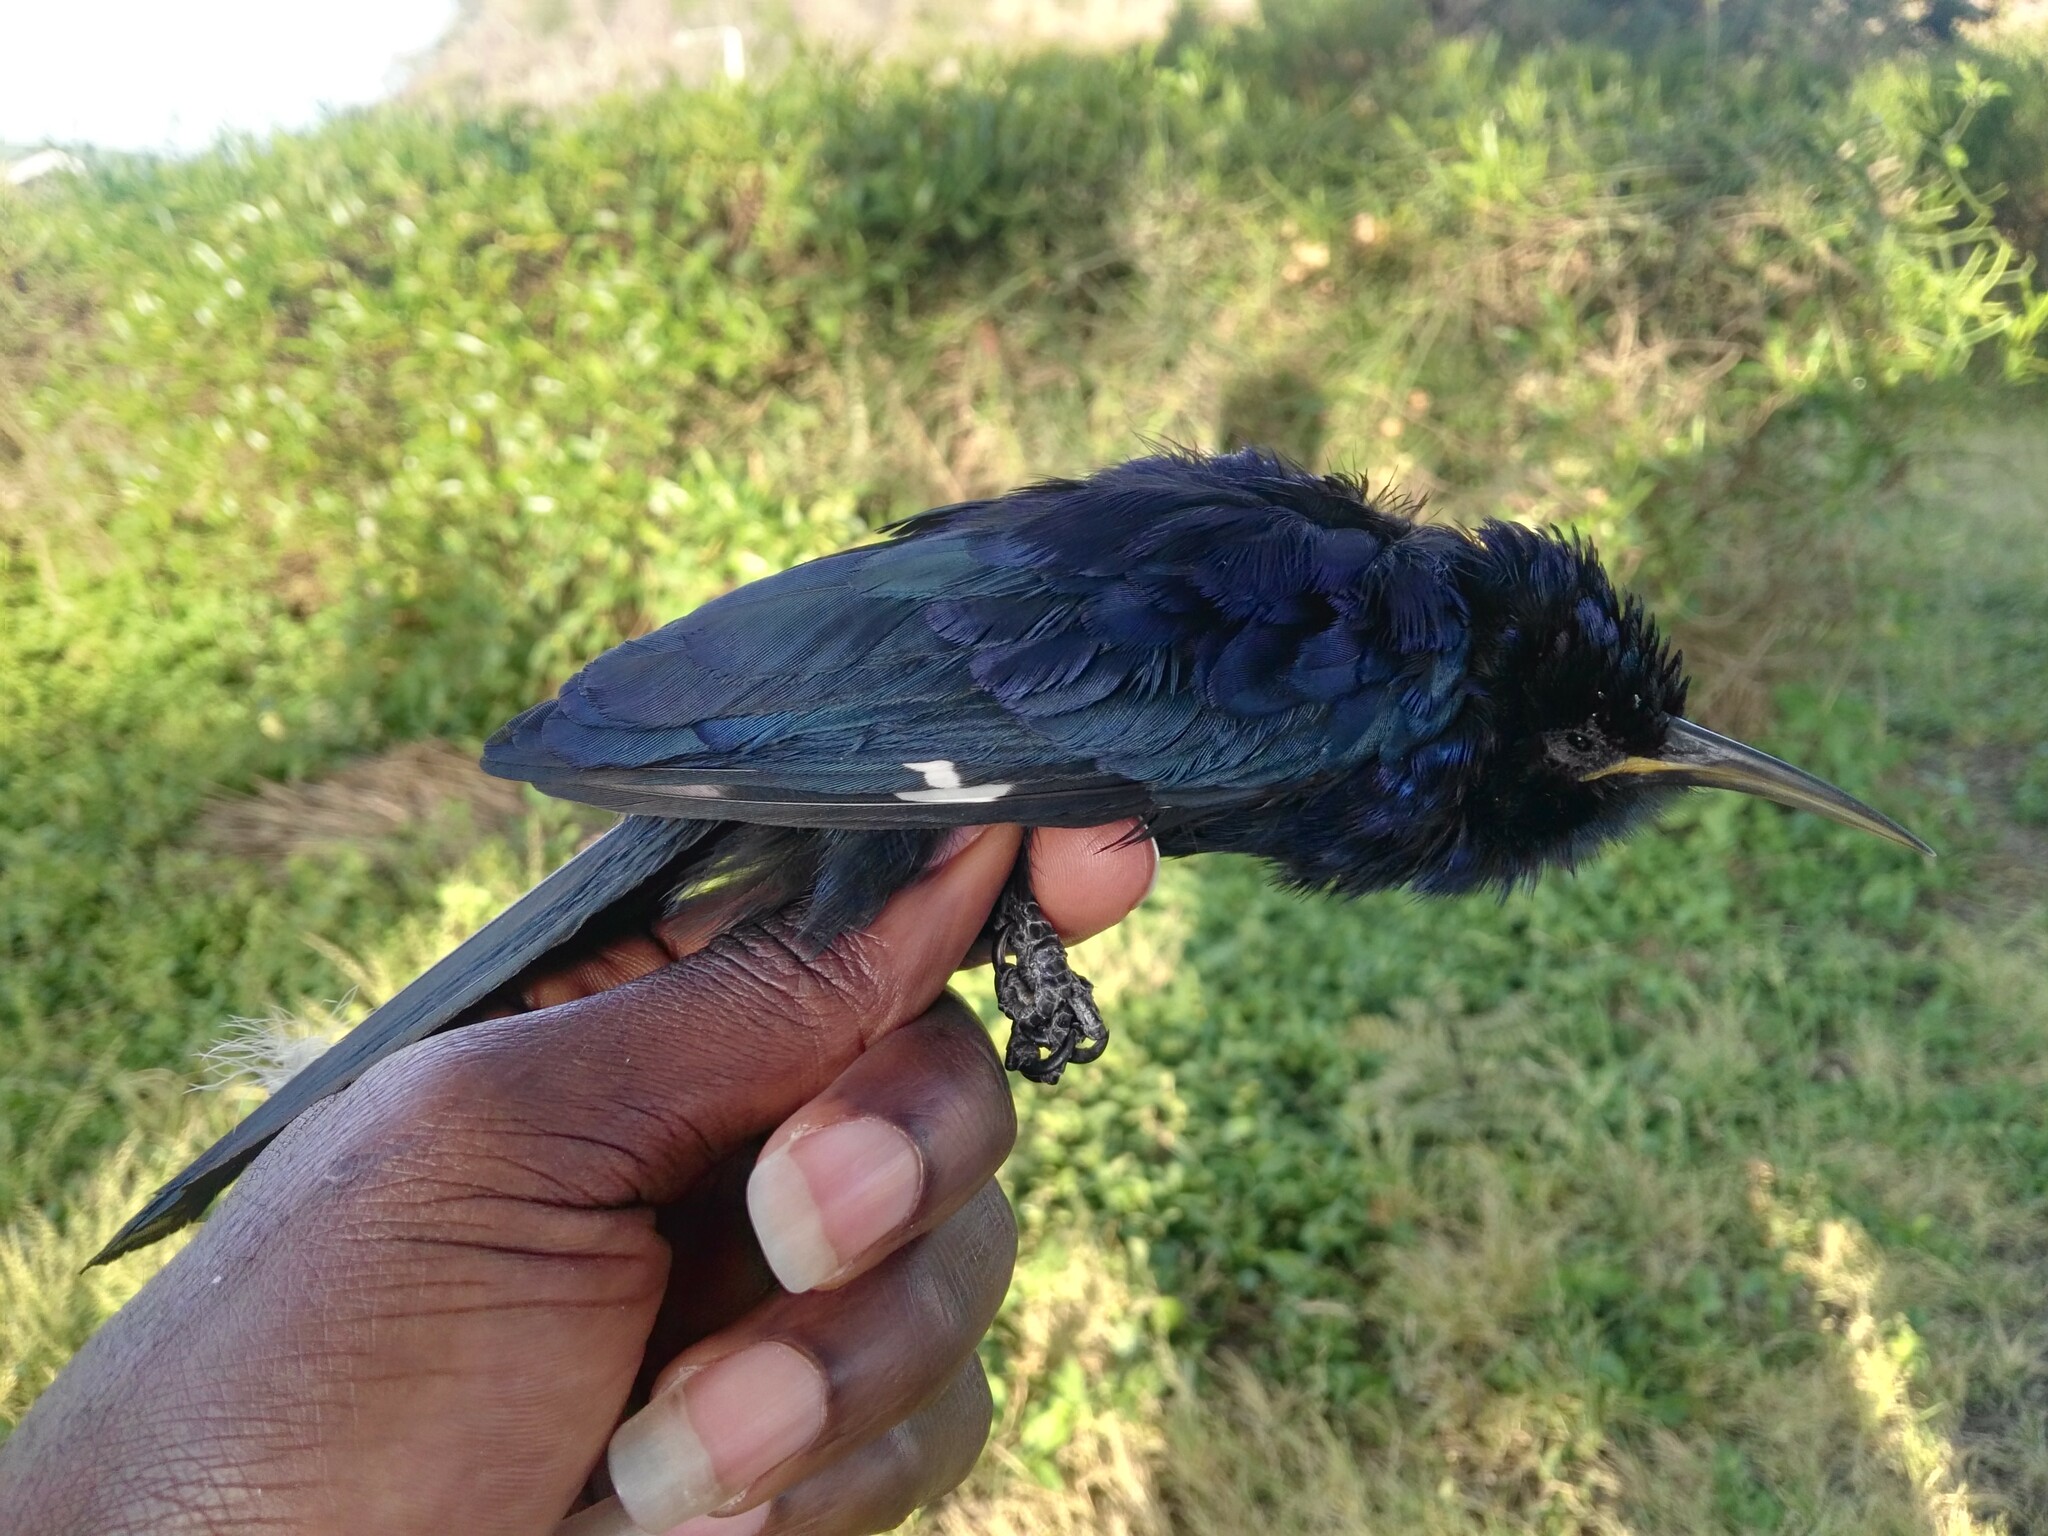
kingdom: Animalia
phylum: Chordata
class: Aves
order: Bucerotiformes
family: Phoeniculidae
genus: Rhinopomastus
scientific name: Rhinopomastus aterrimus
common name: Black scimitarbill
